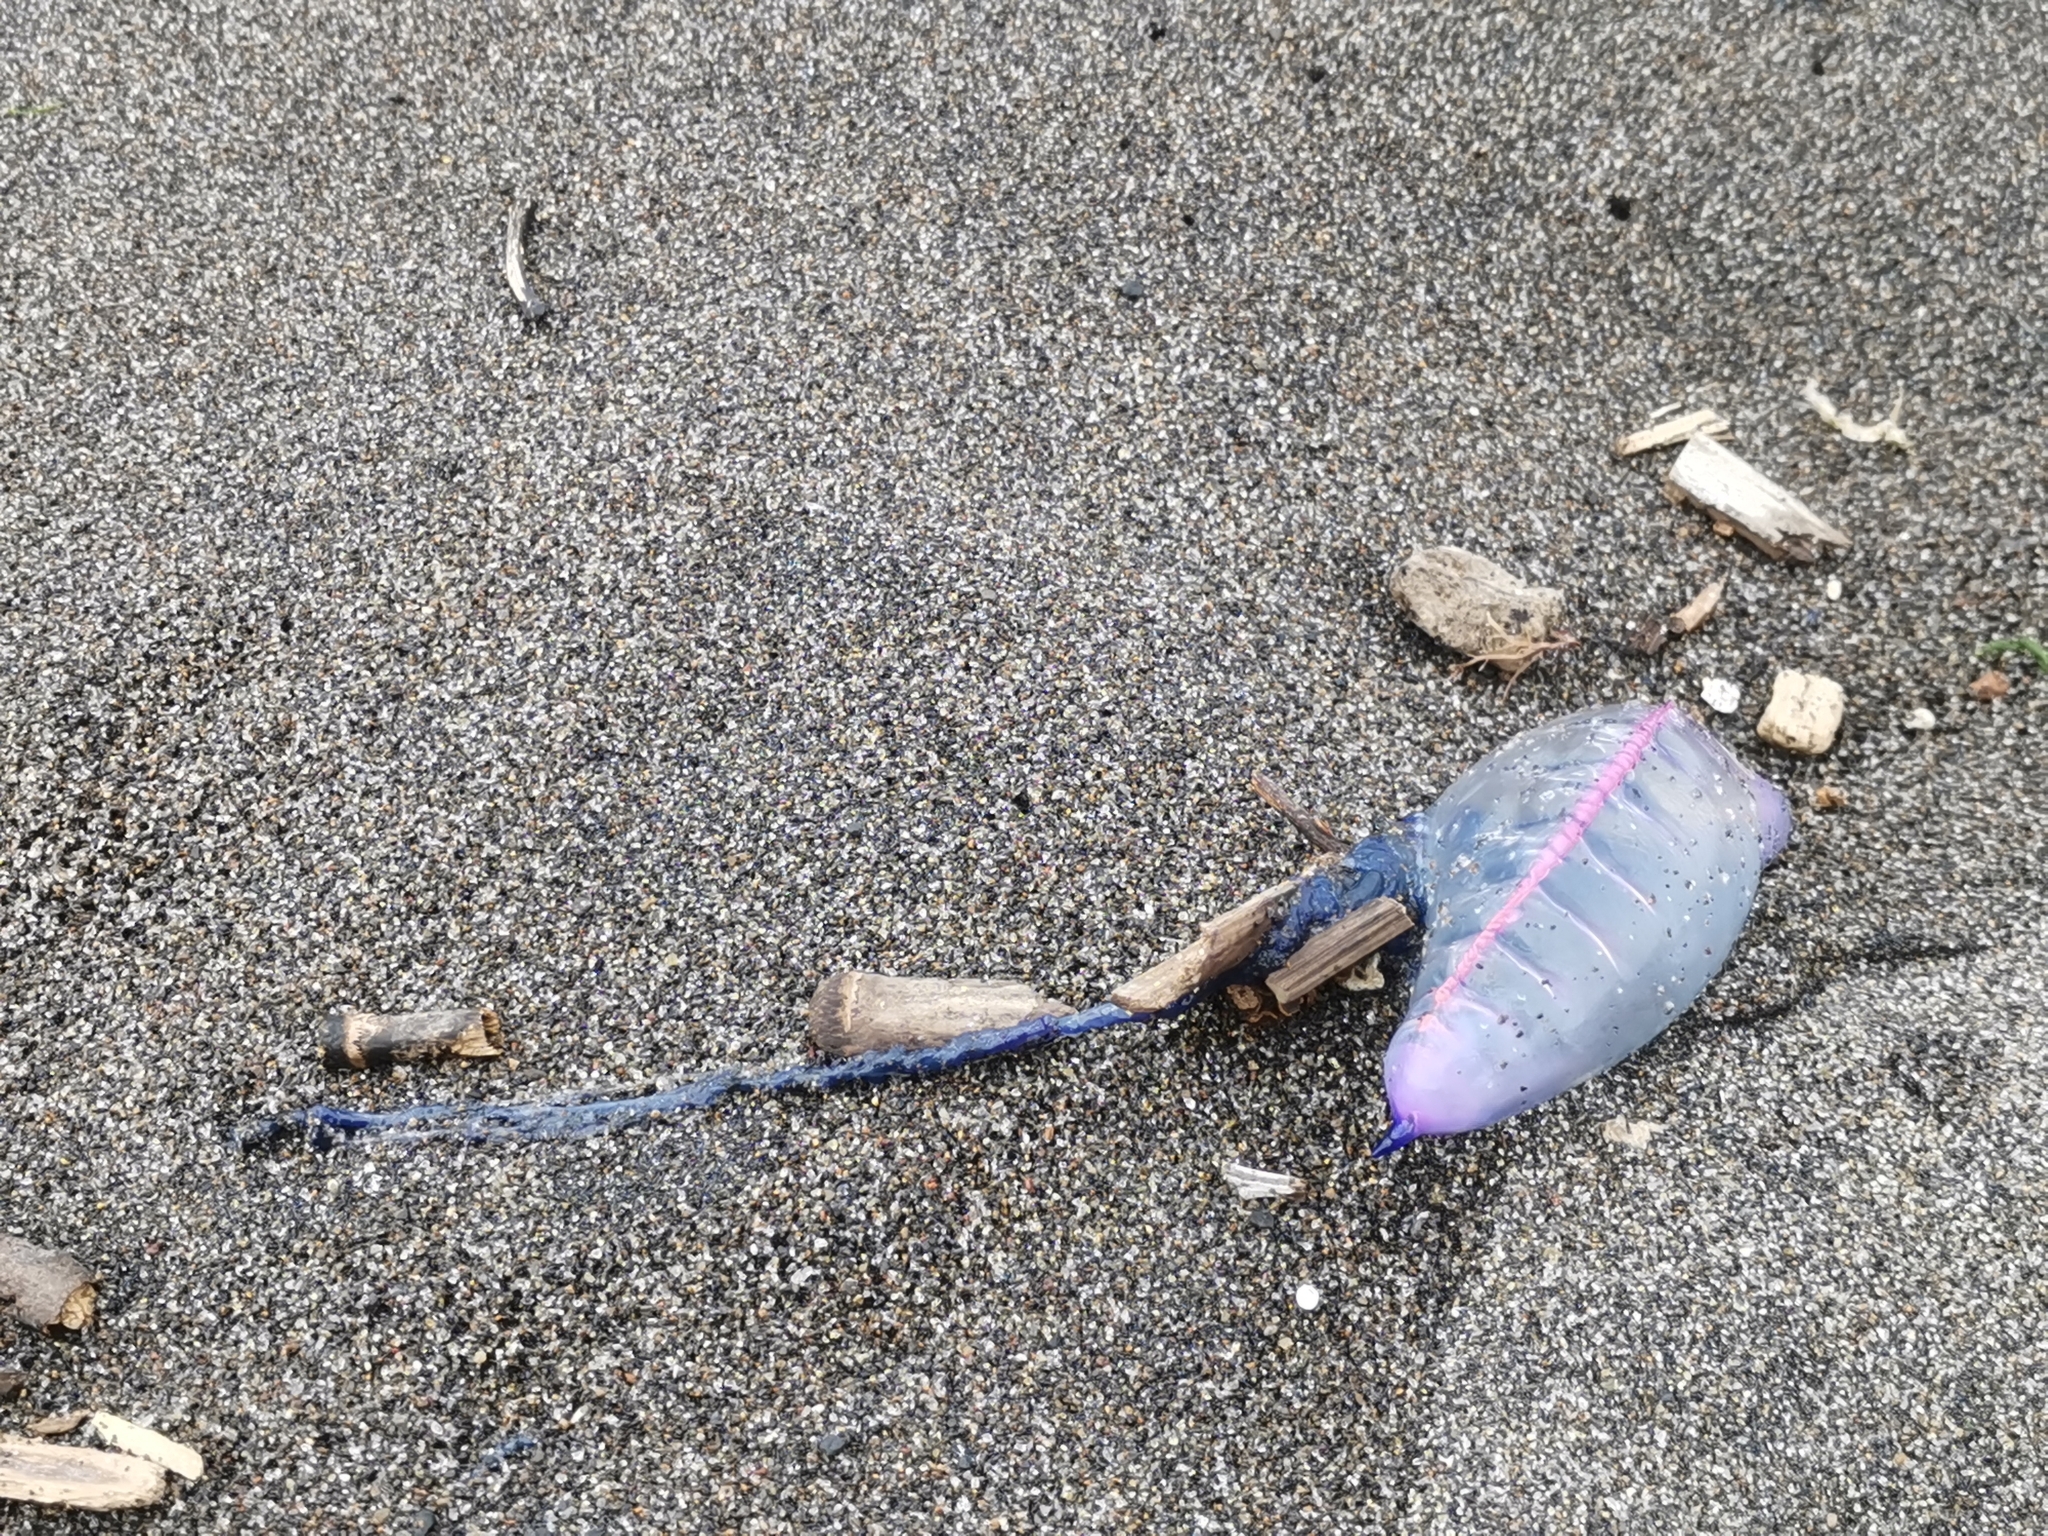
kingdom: Animalia
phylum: Cnidaria
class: Hydrozoa
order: Siphonophorae
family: Physaliidae
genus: Physalia
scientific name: Physalia physalis
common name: Portuguese man-of-war
